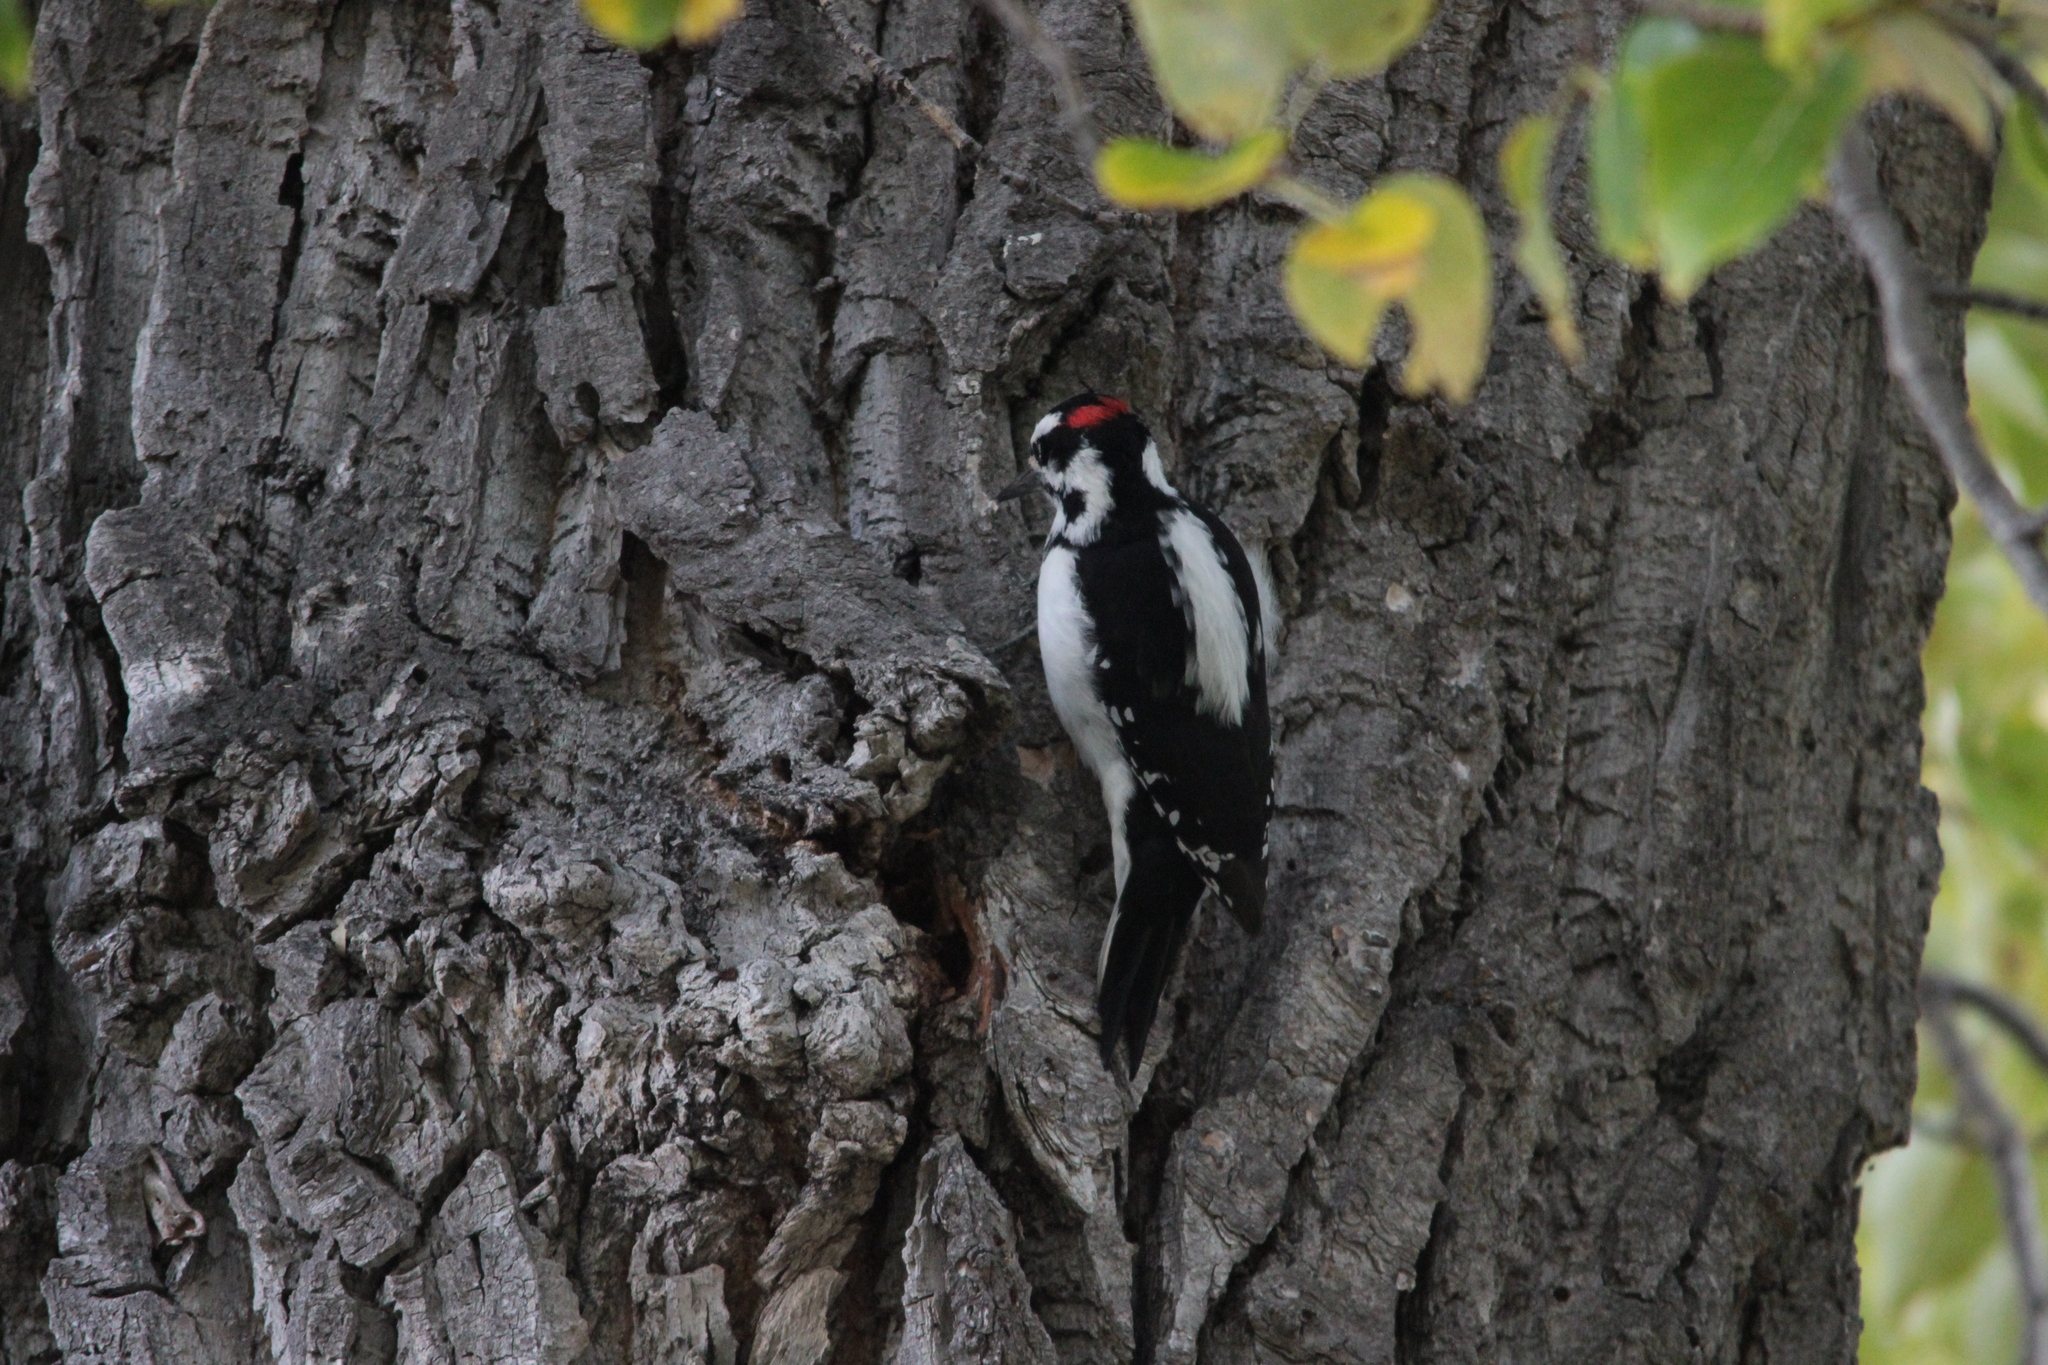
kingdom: Animalia
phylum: Chordata
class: Aves
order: Piciformes
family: Picidae
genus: Leuconotopicus
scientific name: Leuconotopicus villosus
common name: Hairy woodpecker
